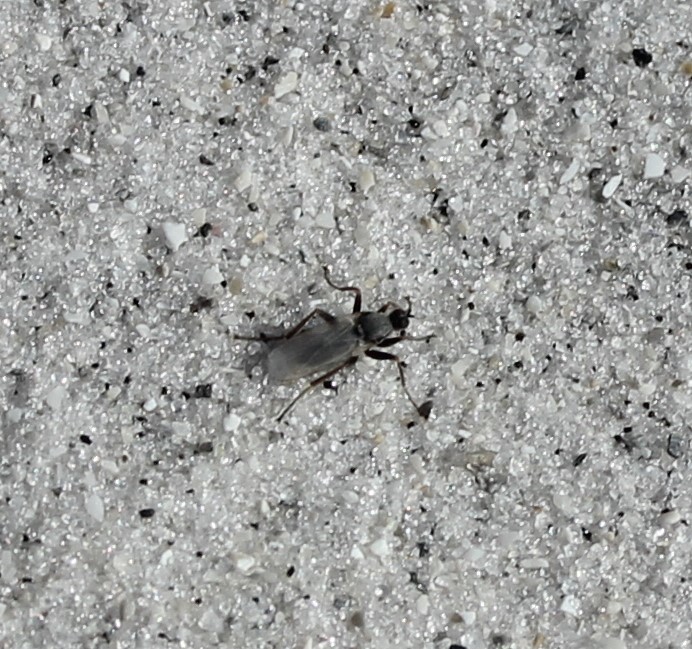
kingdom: Animalia
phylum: Arthropoda
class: Insecta
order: Diptera
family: Hybotidae
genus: Chersodromia
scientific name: Chersodromia inusitata
